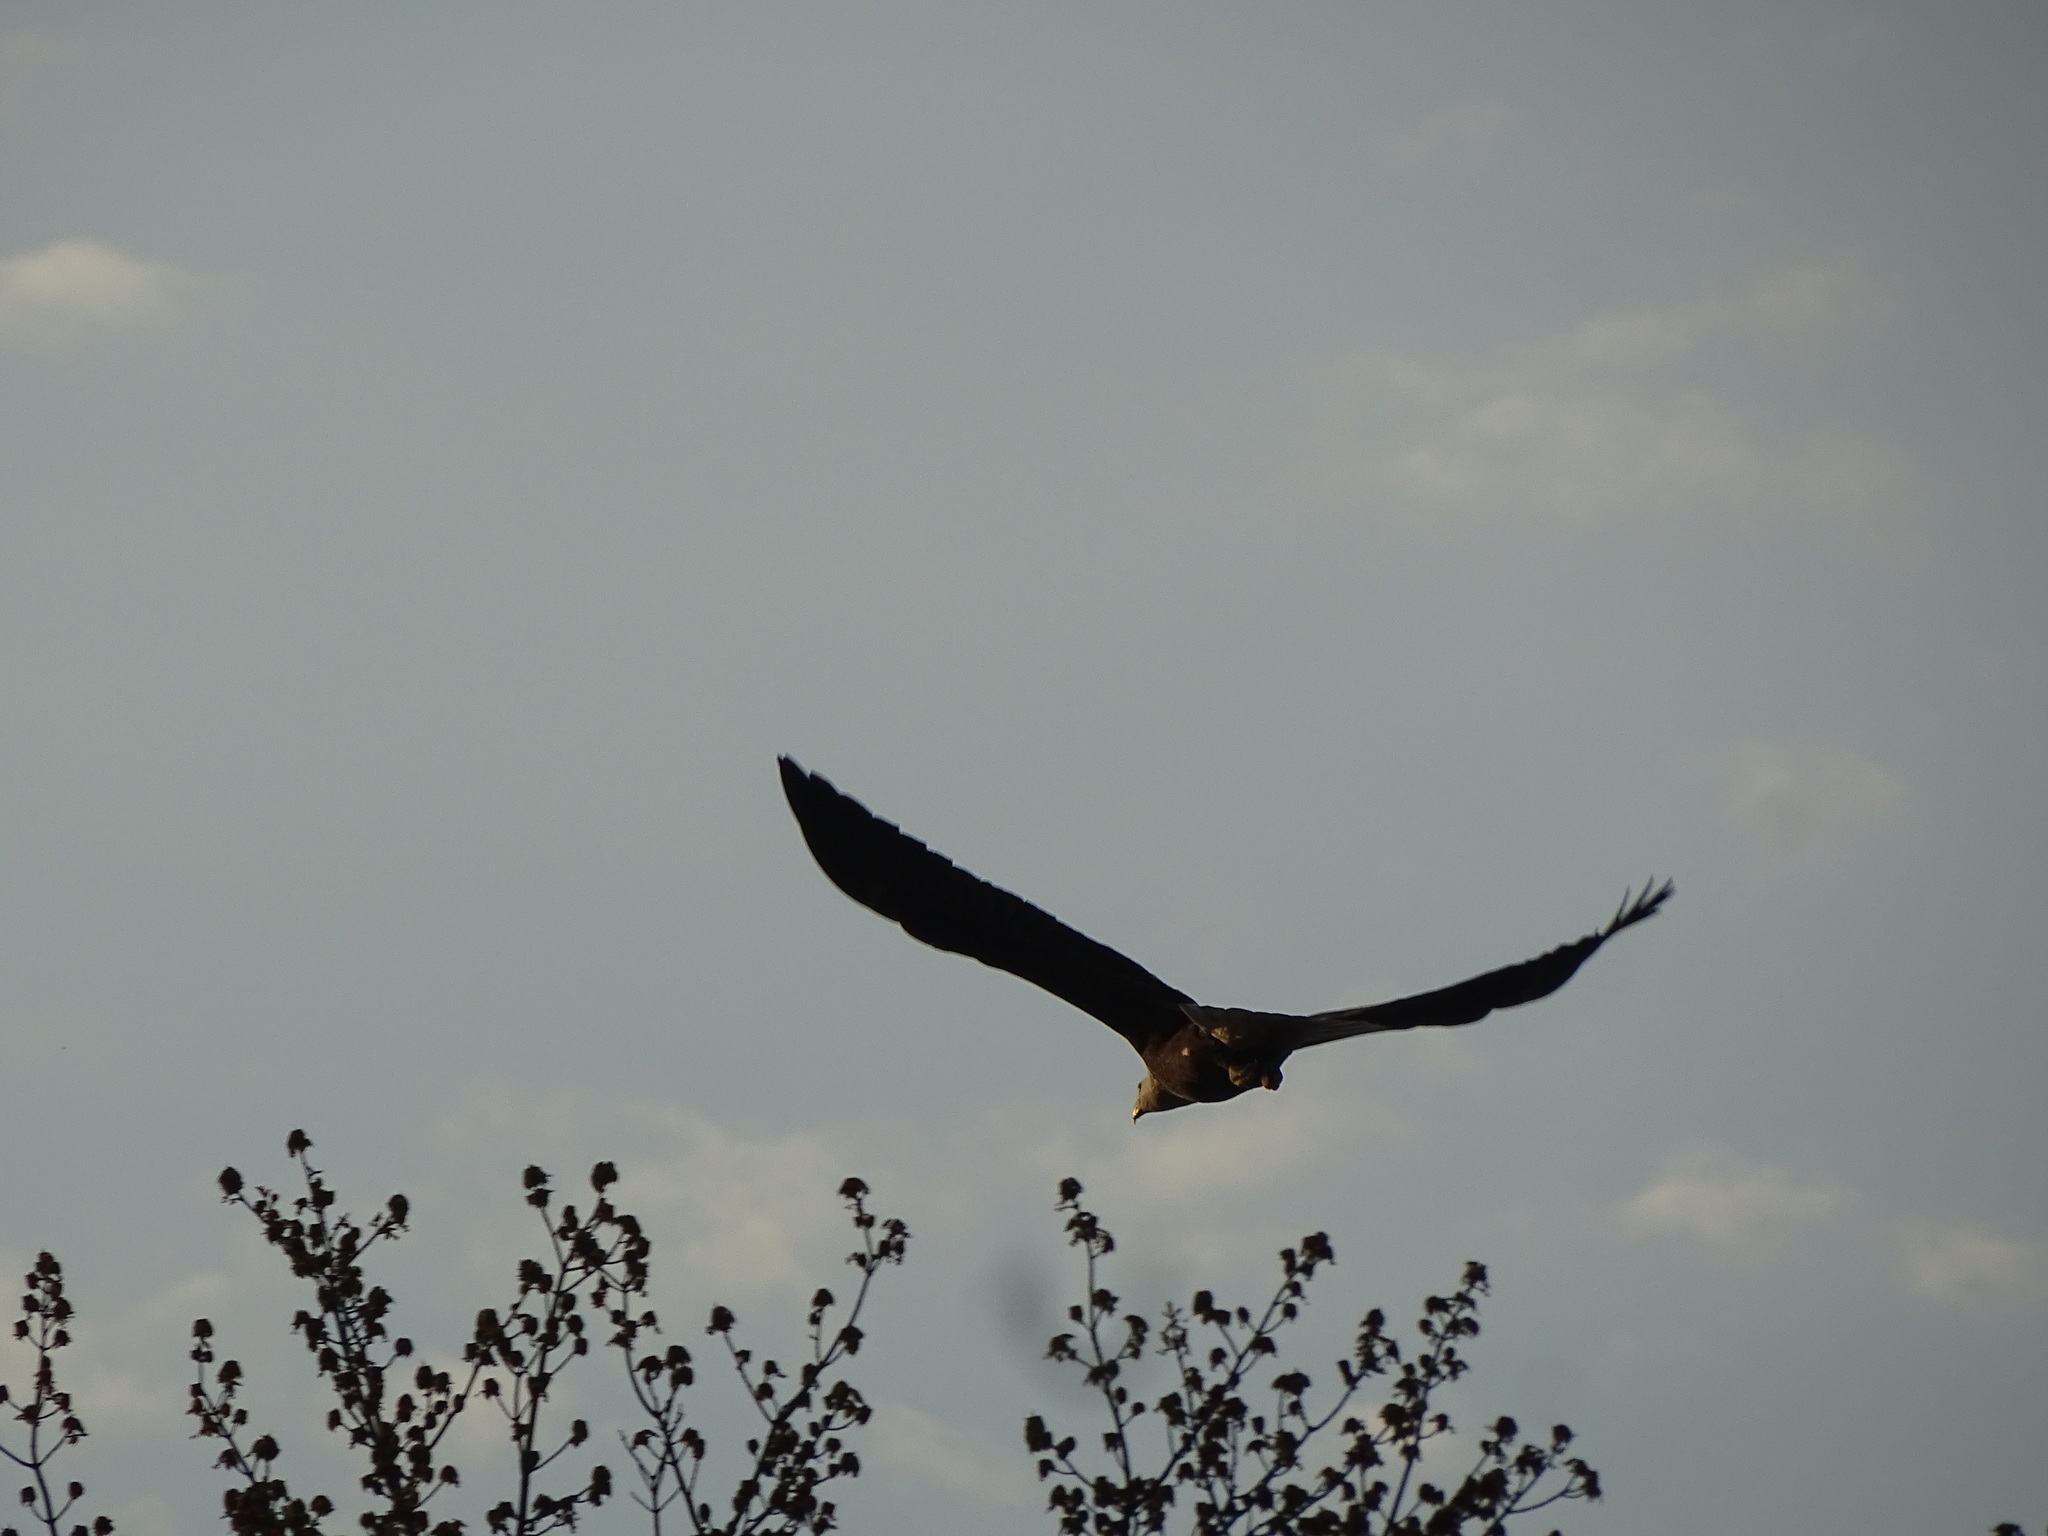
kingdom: Animalia
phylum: Chordata
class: Aves
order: Accipitriformes
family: Accipitridae
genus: Haliaeetus
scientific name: Haliaeetus leucocephalus
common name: Bald eagle
